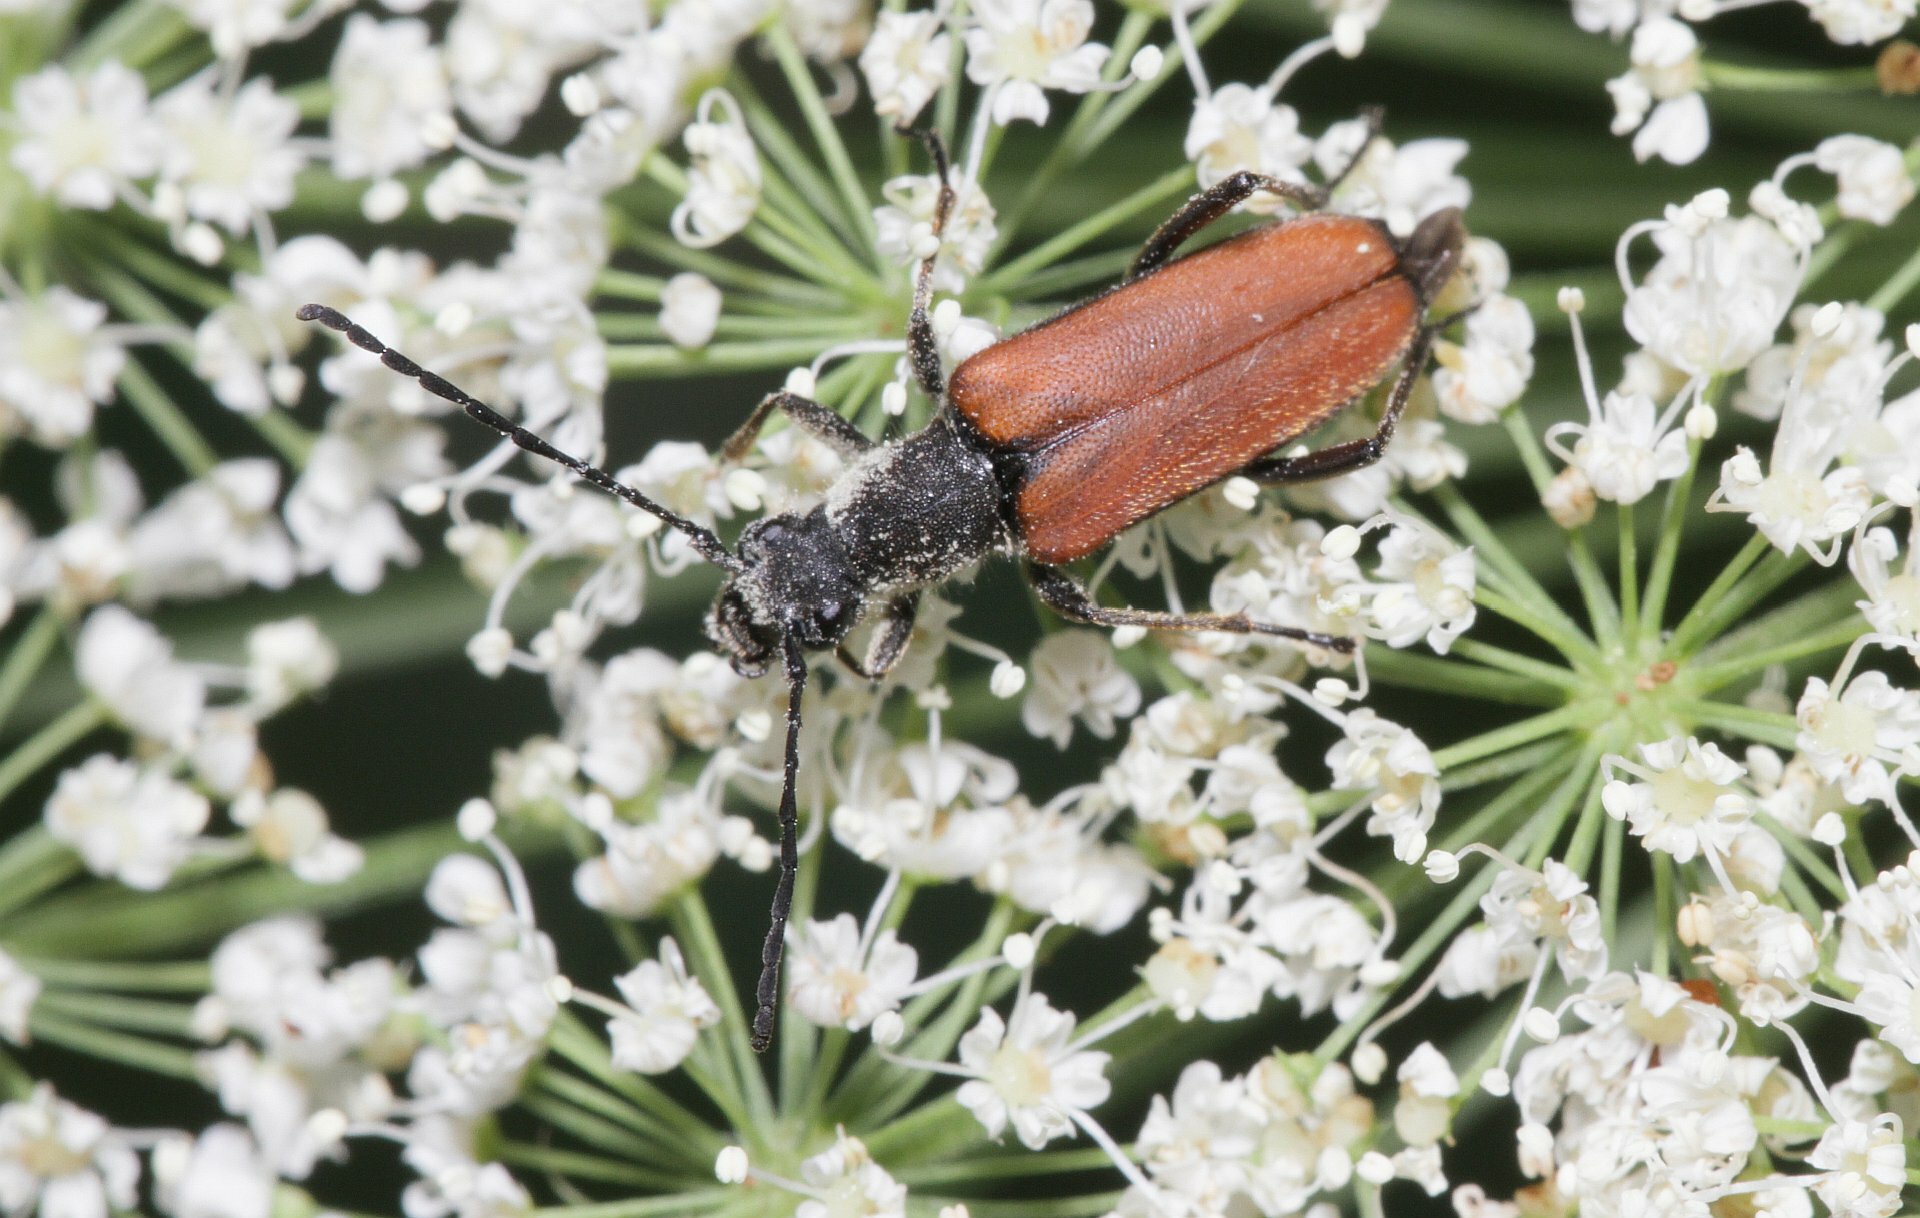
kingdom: Animalia
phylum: Arthropoda
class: Insecta
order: Coleoptera
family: Cerambycidae
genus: Anastrangalia
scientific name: Anastrangalia dubia
